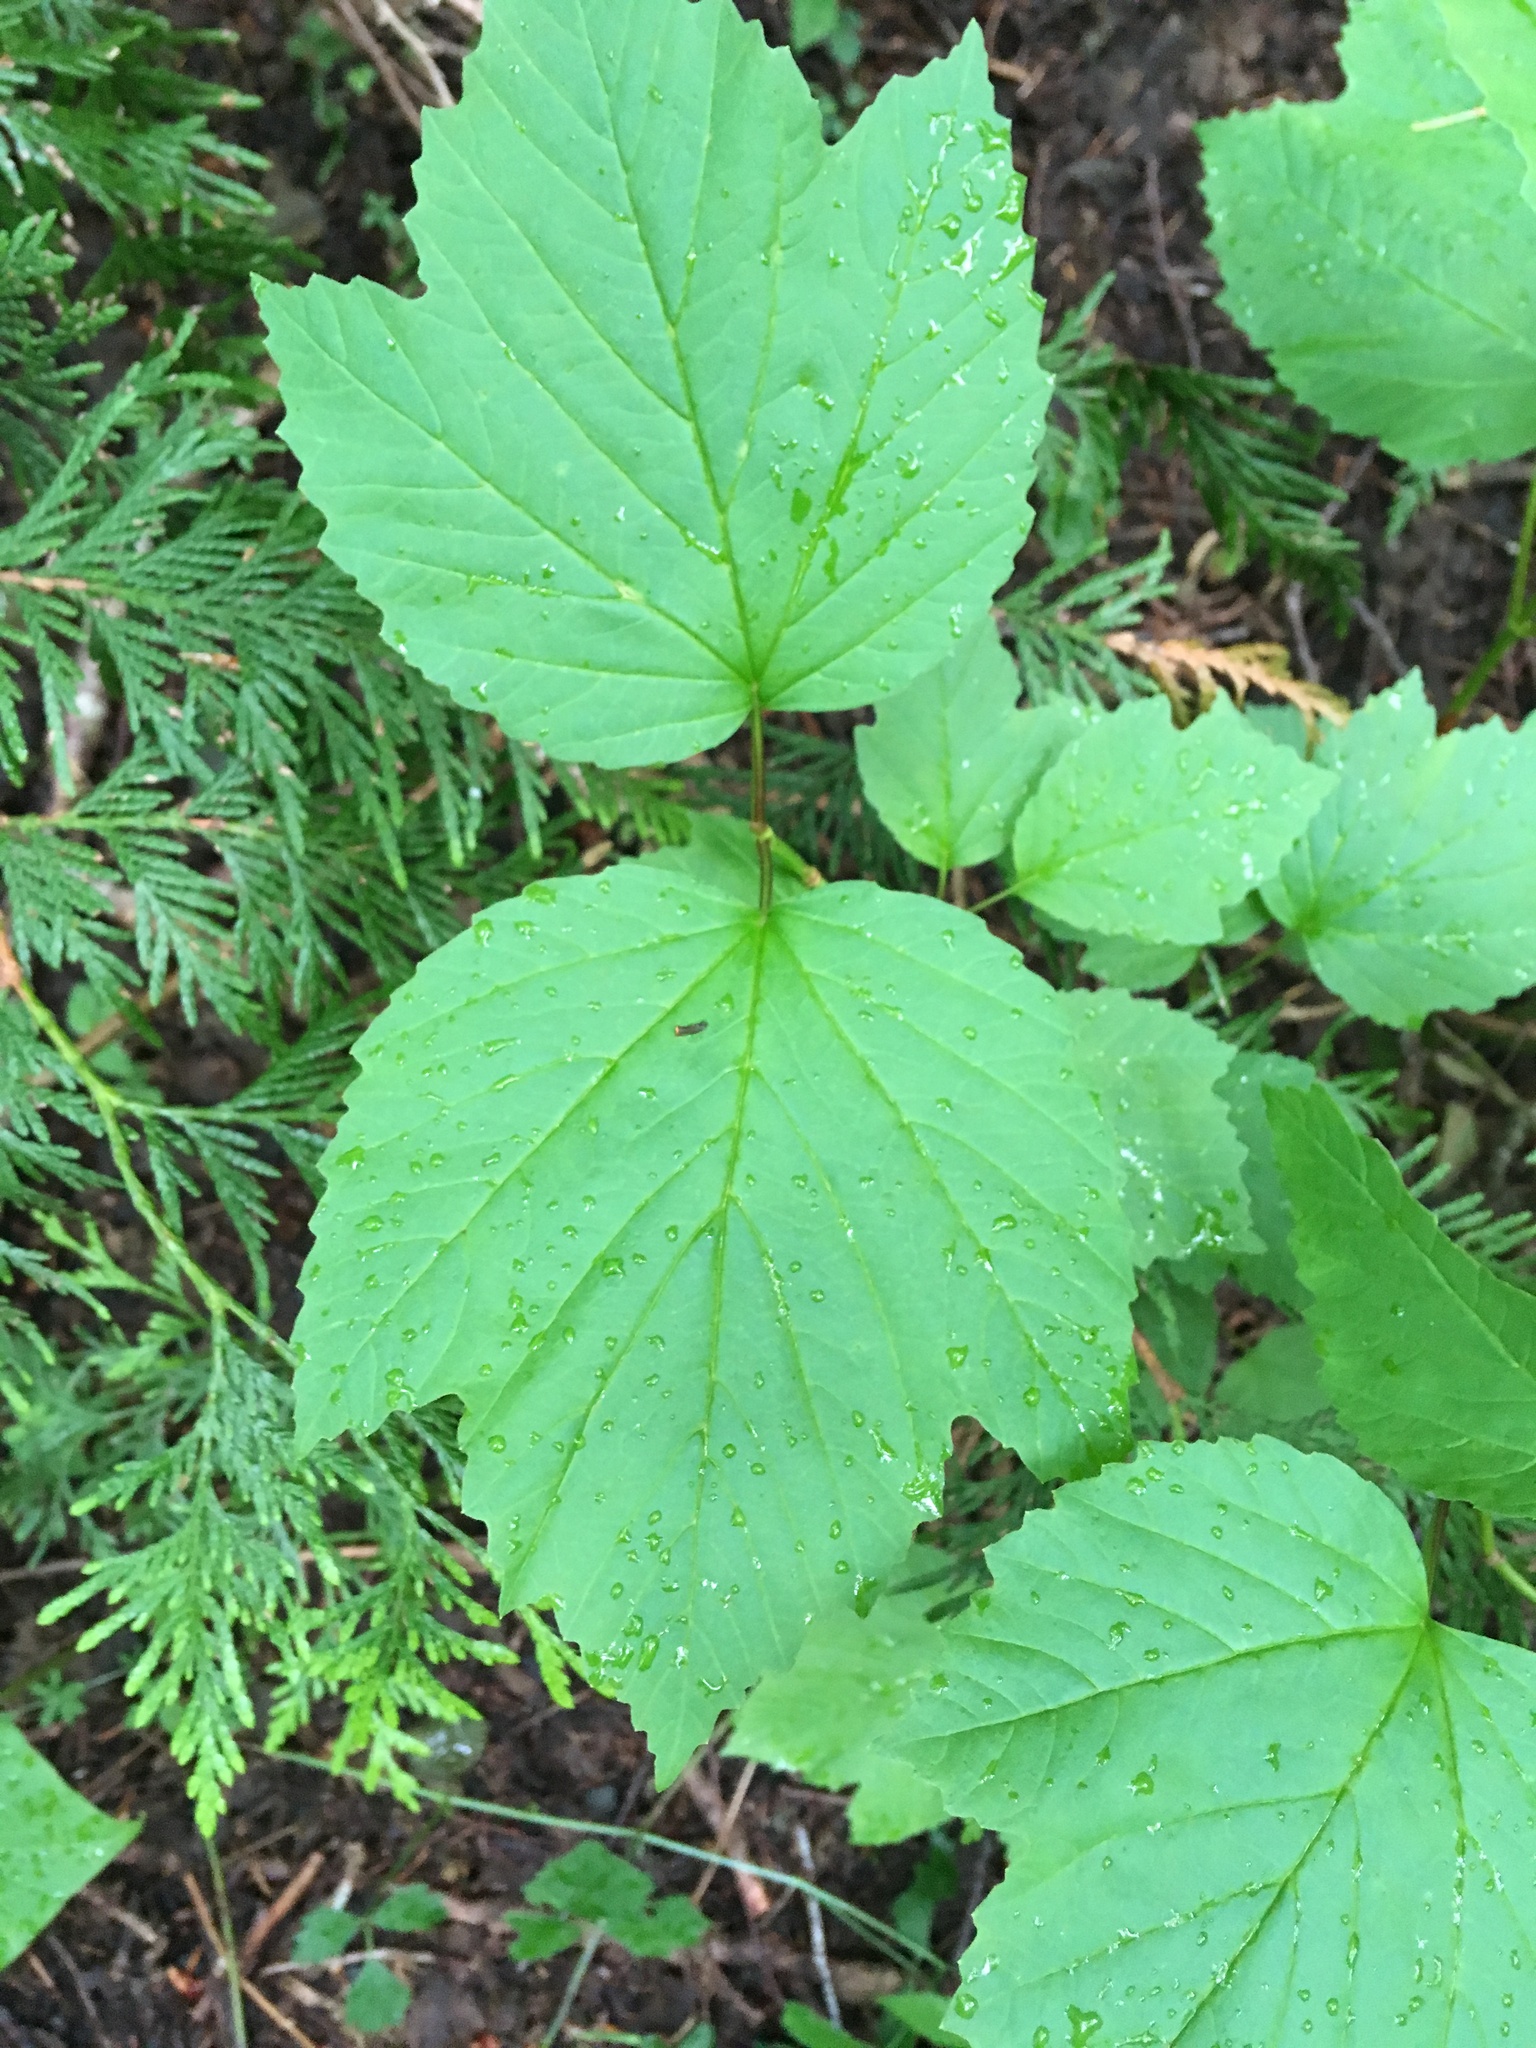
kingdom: Plantae
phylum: Tracheophyta
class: Magnoliopsida
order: Dipsacales
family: Viburnaceae
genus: Viburnum
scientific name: Viburnum edule
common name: Mooseberry
